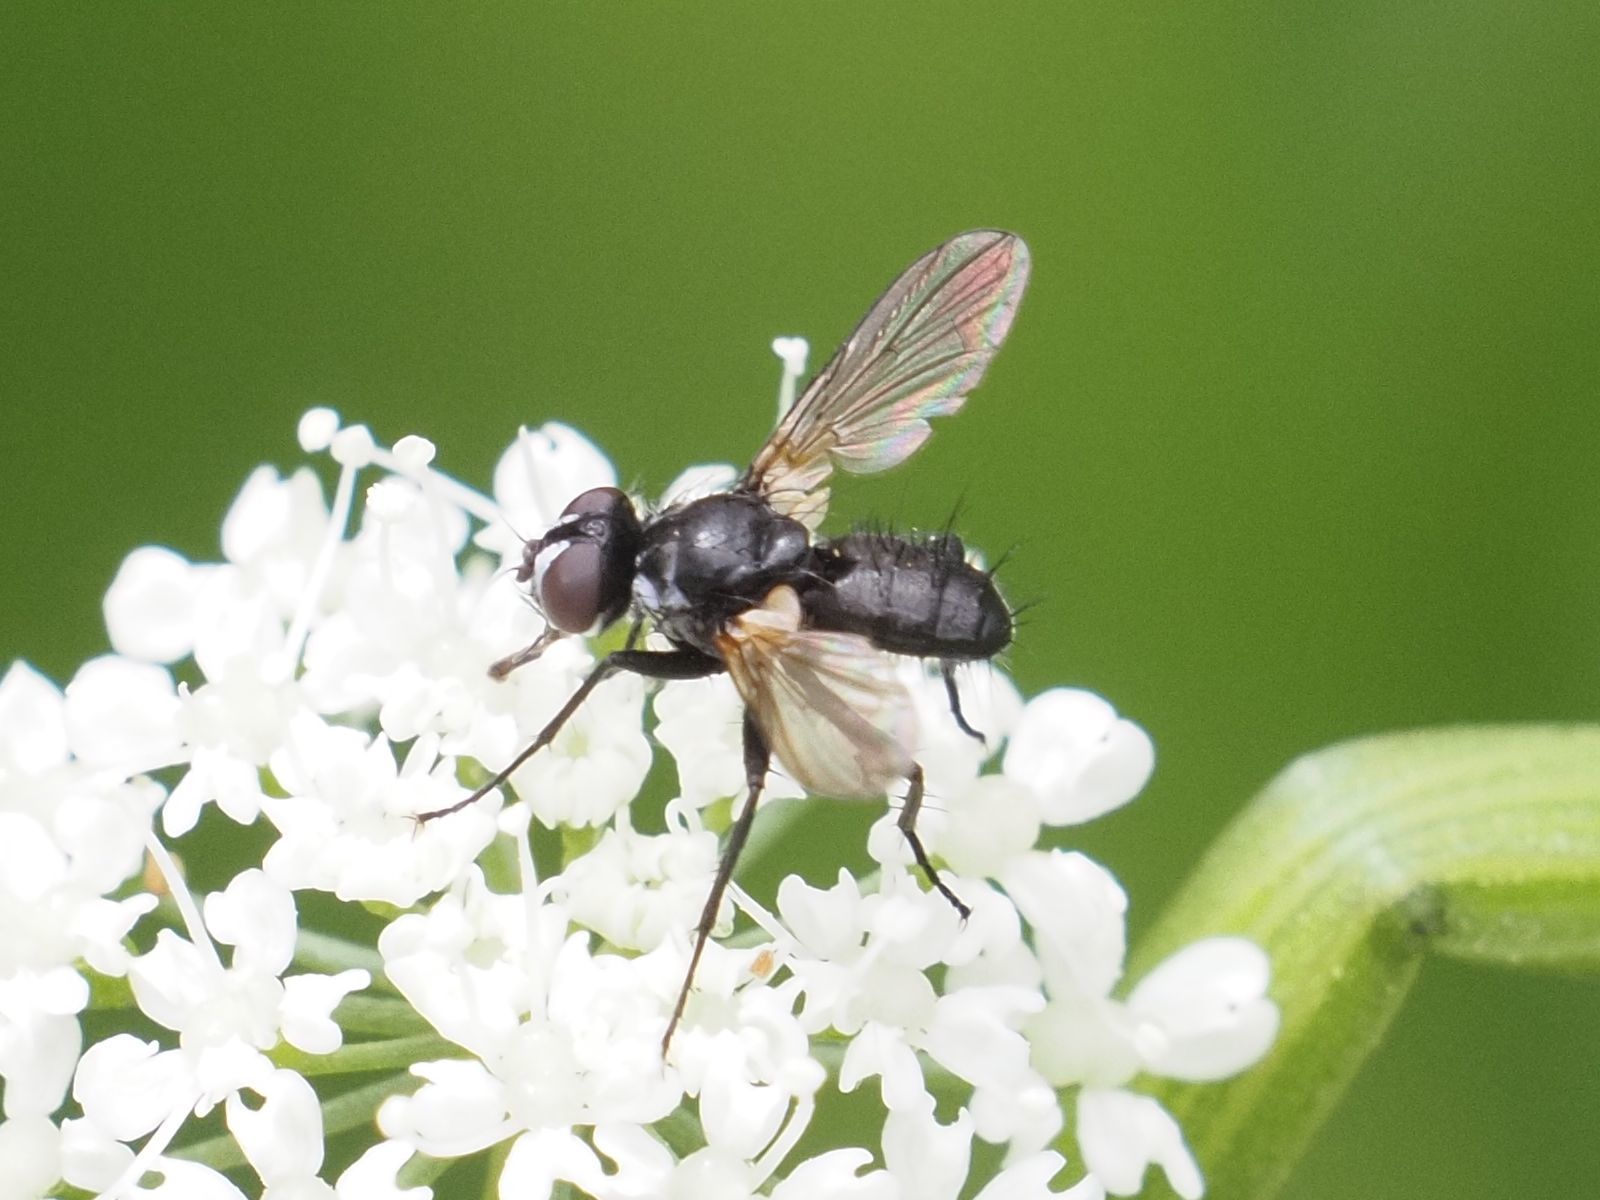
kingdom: Animalia
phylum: Arthropoda
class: Insecta
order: Diptera
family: Tachinidae
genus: Phania
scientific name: Phania funesta
